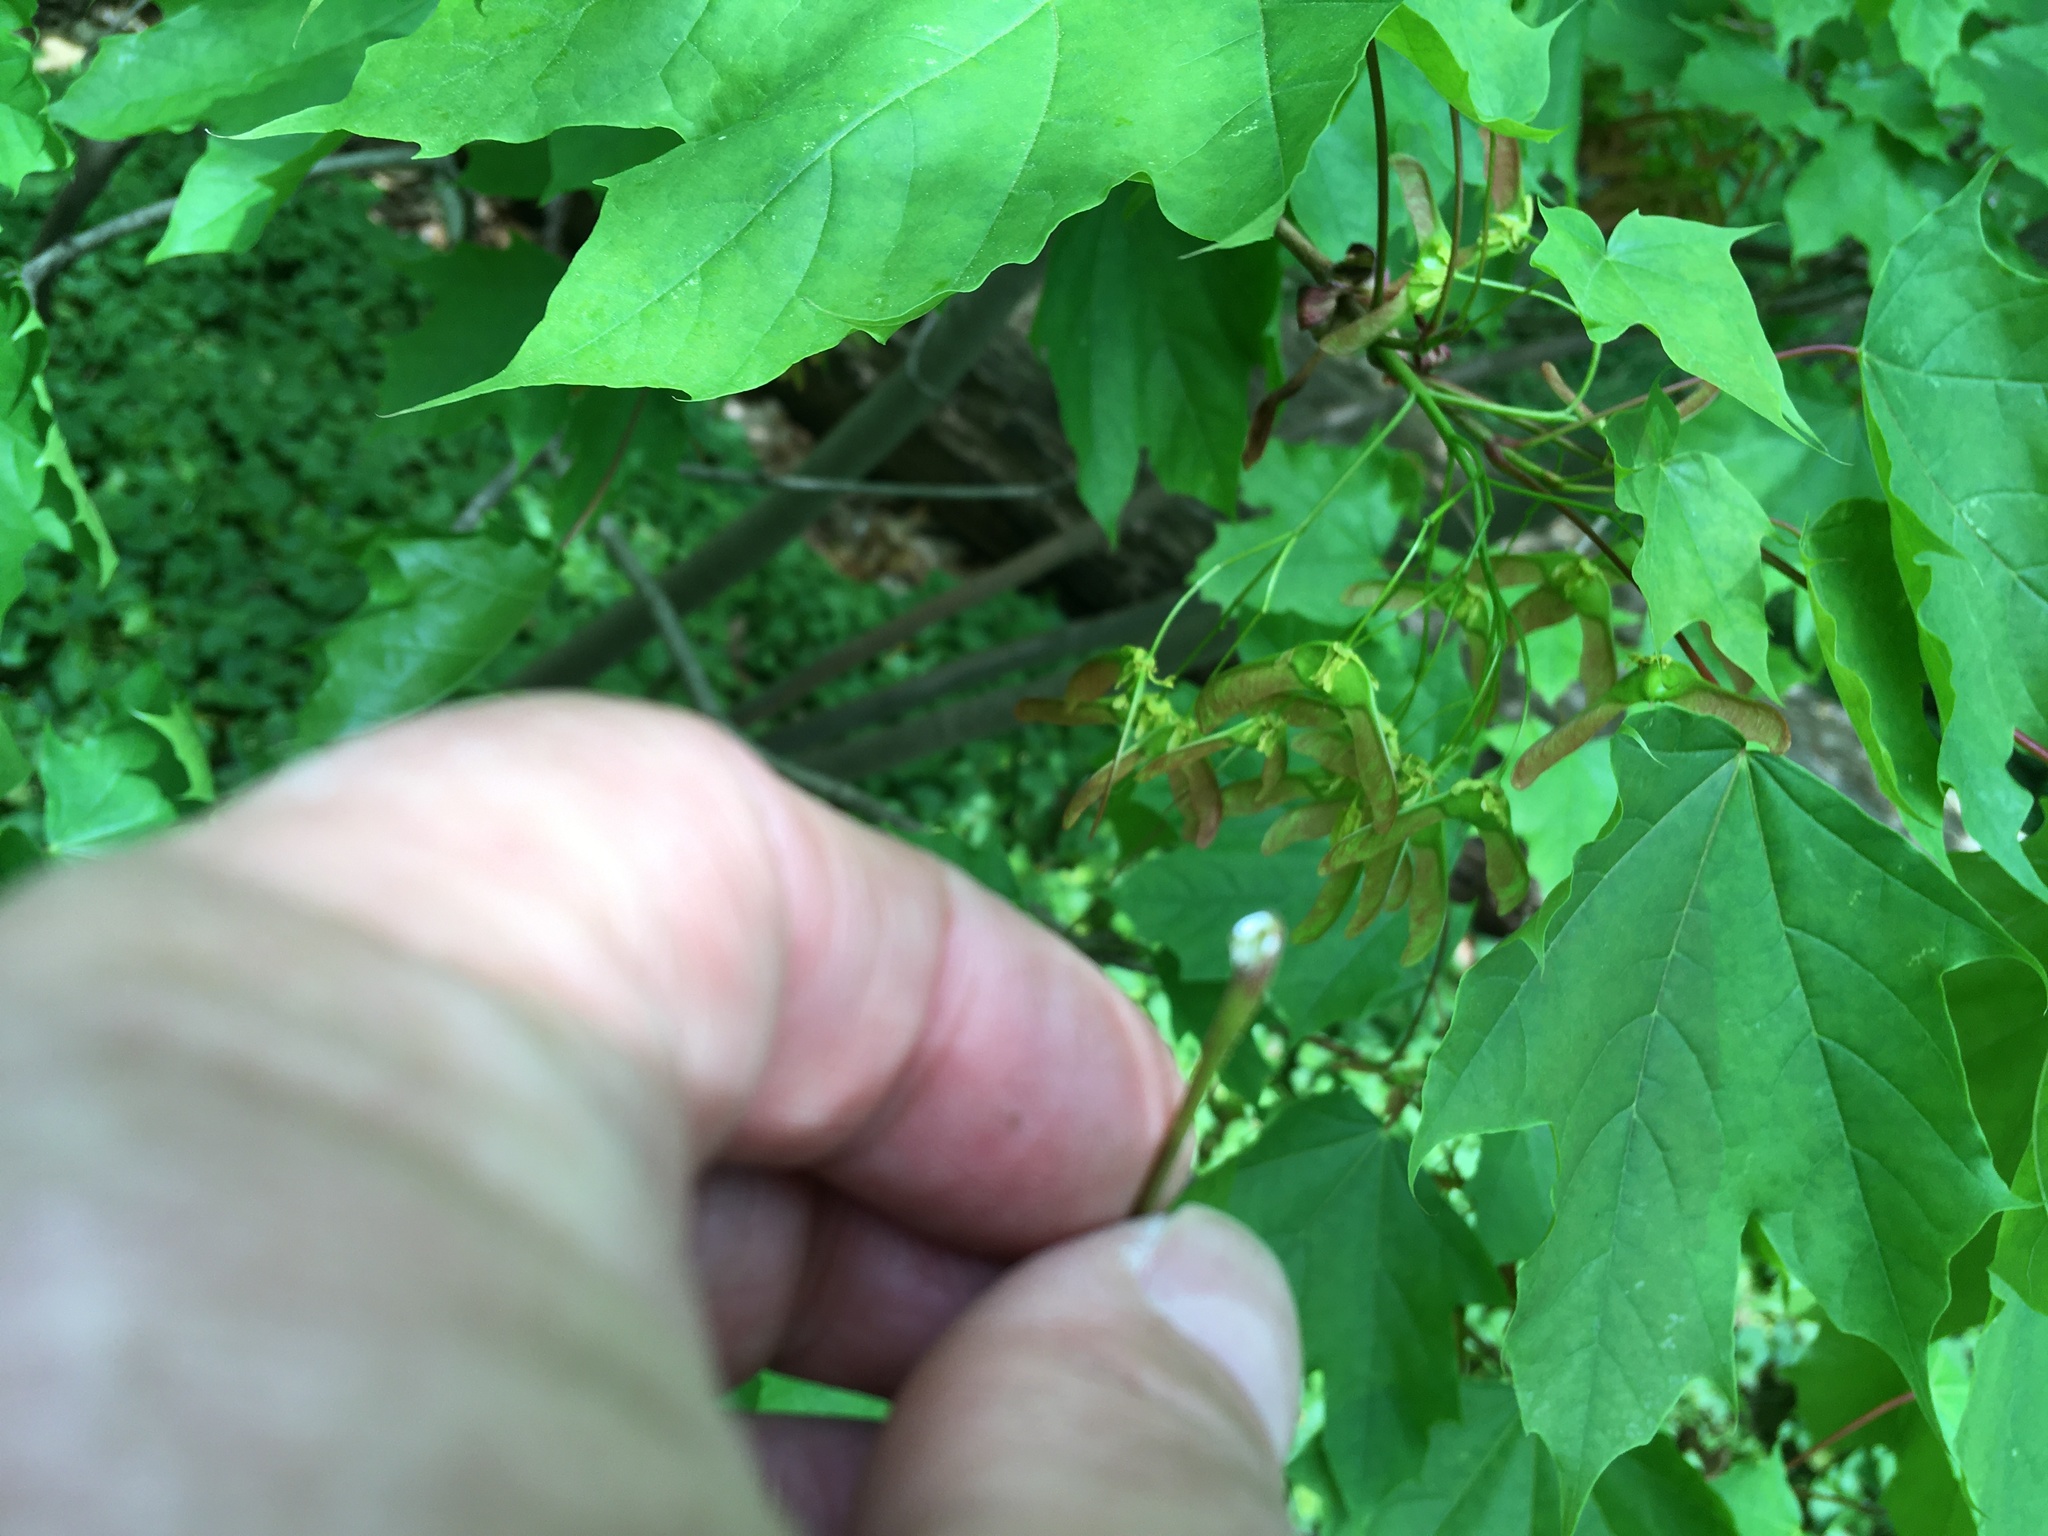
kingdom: Plantae
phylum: Tracheophyta
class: Magnoliopsida
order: Sapindales
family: Sapindaceae
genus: Acer
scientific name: Acer platanoides
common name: Norway maple
